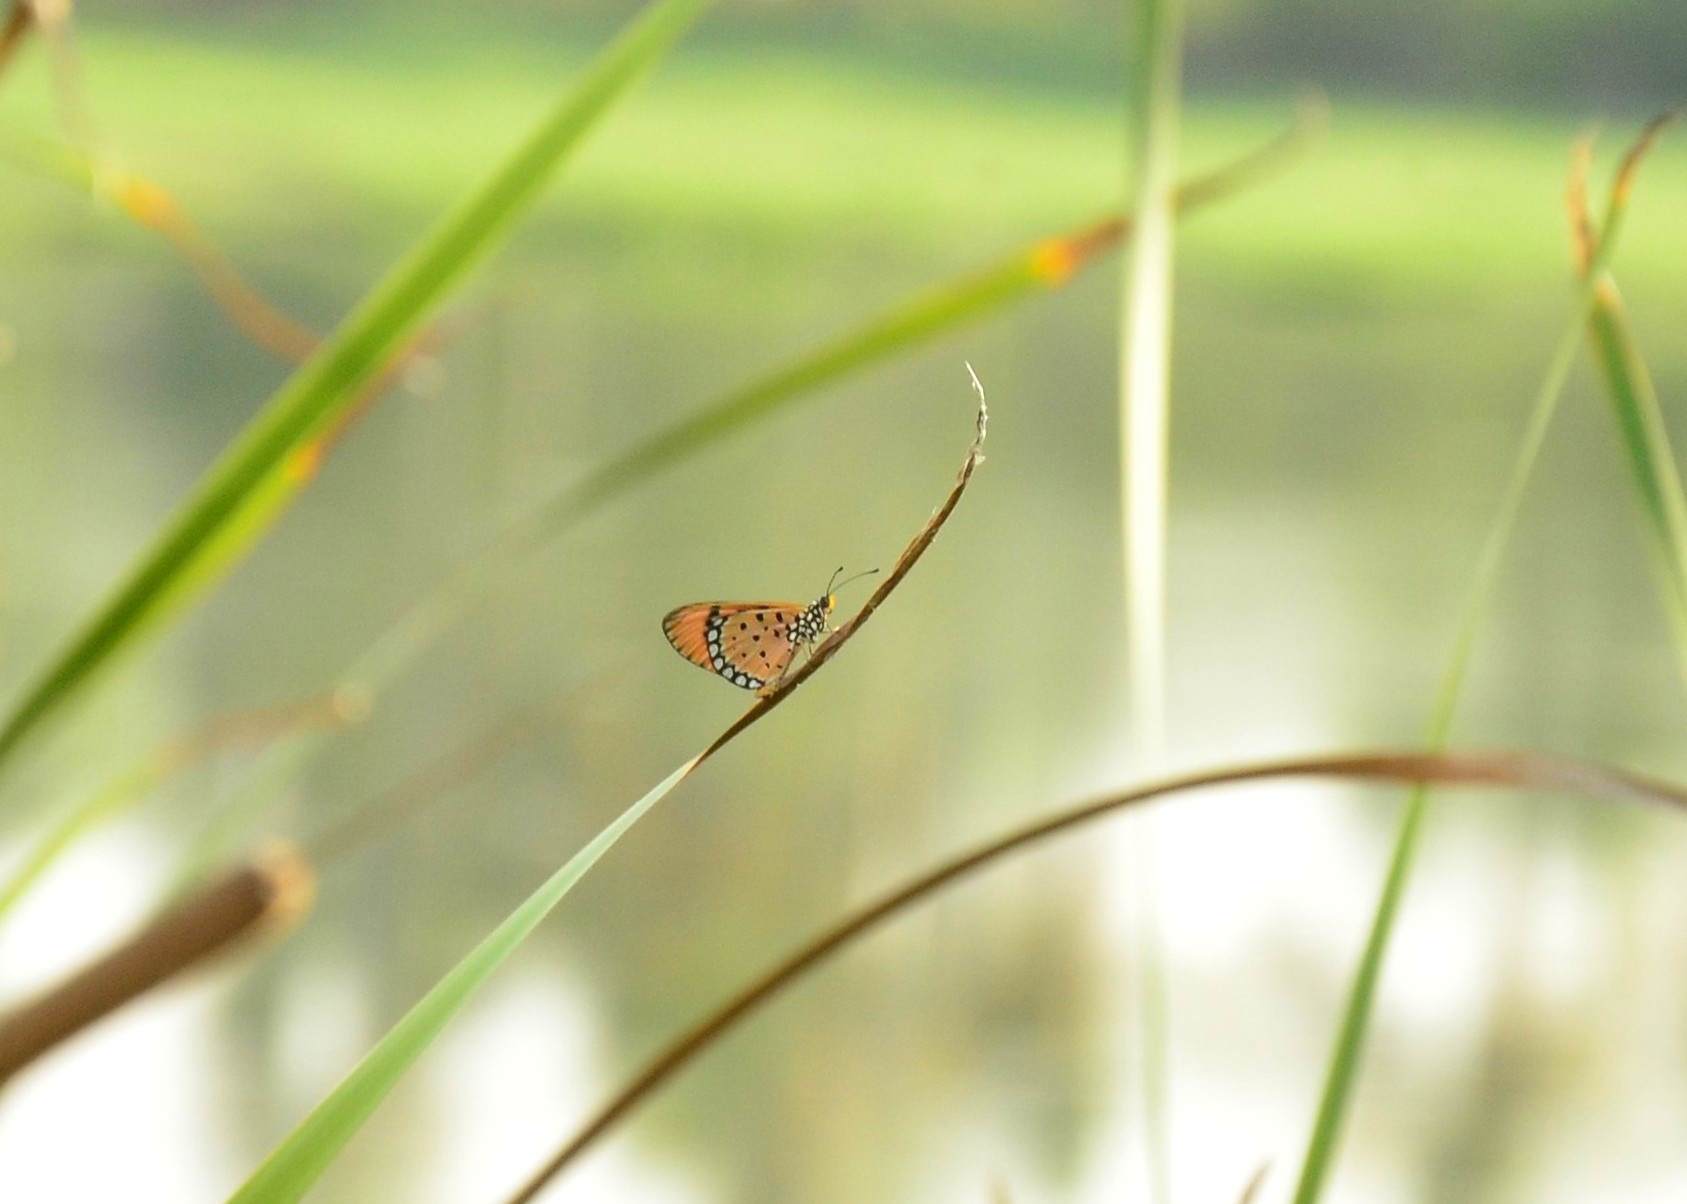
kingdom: Animalia
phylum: Arthropoda
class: Insecta
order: Lepidoptera
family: Nymphalidae
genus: Acraea
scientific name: Acraea terpsicore
